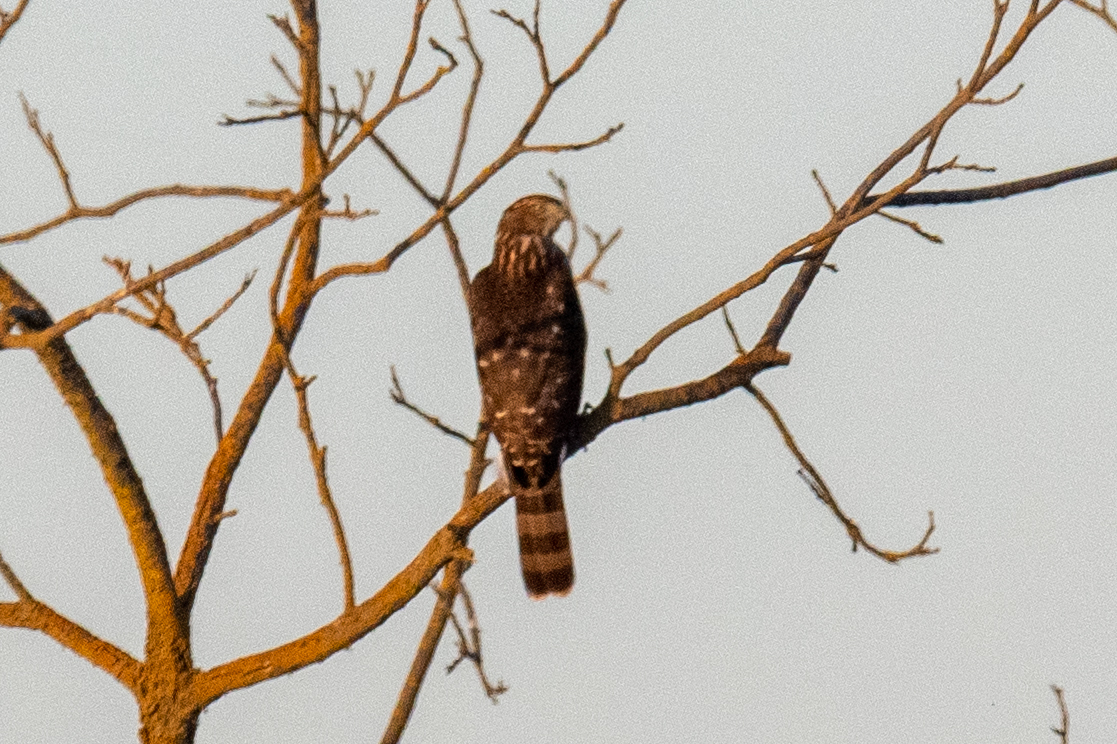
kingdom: Animalia
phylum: Chordata
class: Aves
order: Accipitriformes
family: Accipitridae
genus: Accipiter
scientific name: Accipiter cooperii
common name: Cooper's hawk
